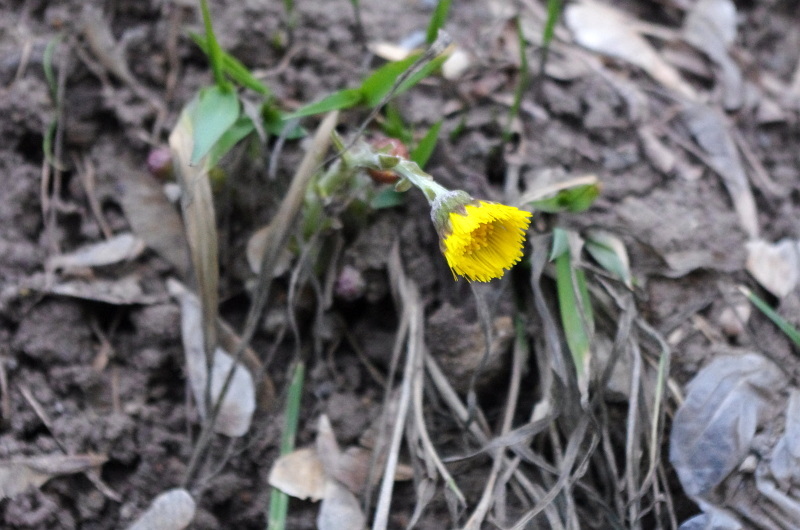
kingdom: Plantae
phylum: Tracheophyta
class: Magnoliopsida
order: Asterales
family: Asteraceae
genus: Tussilago
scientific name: Tussilago farfara
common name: Coltsfoot
